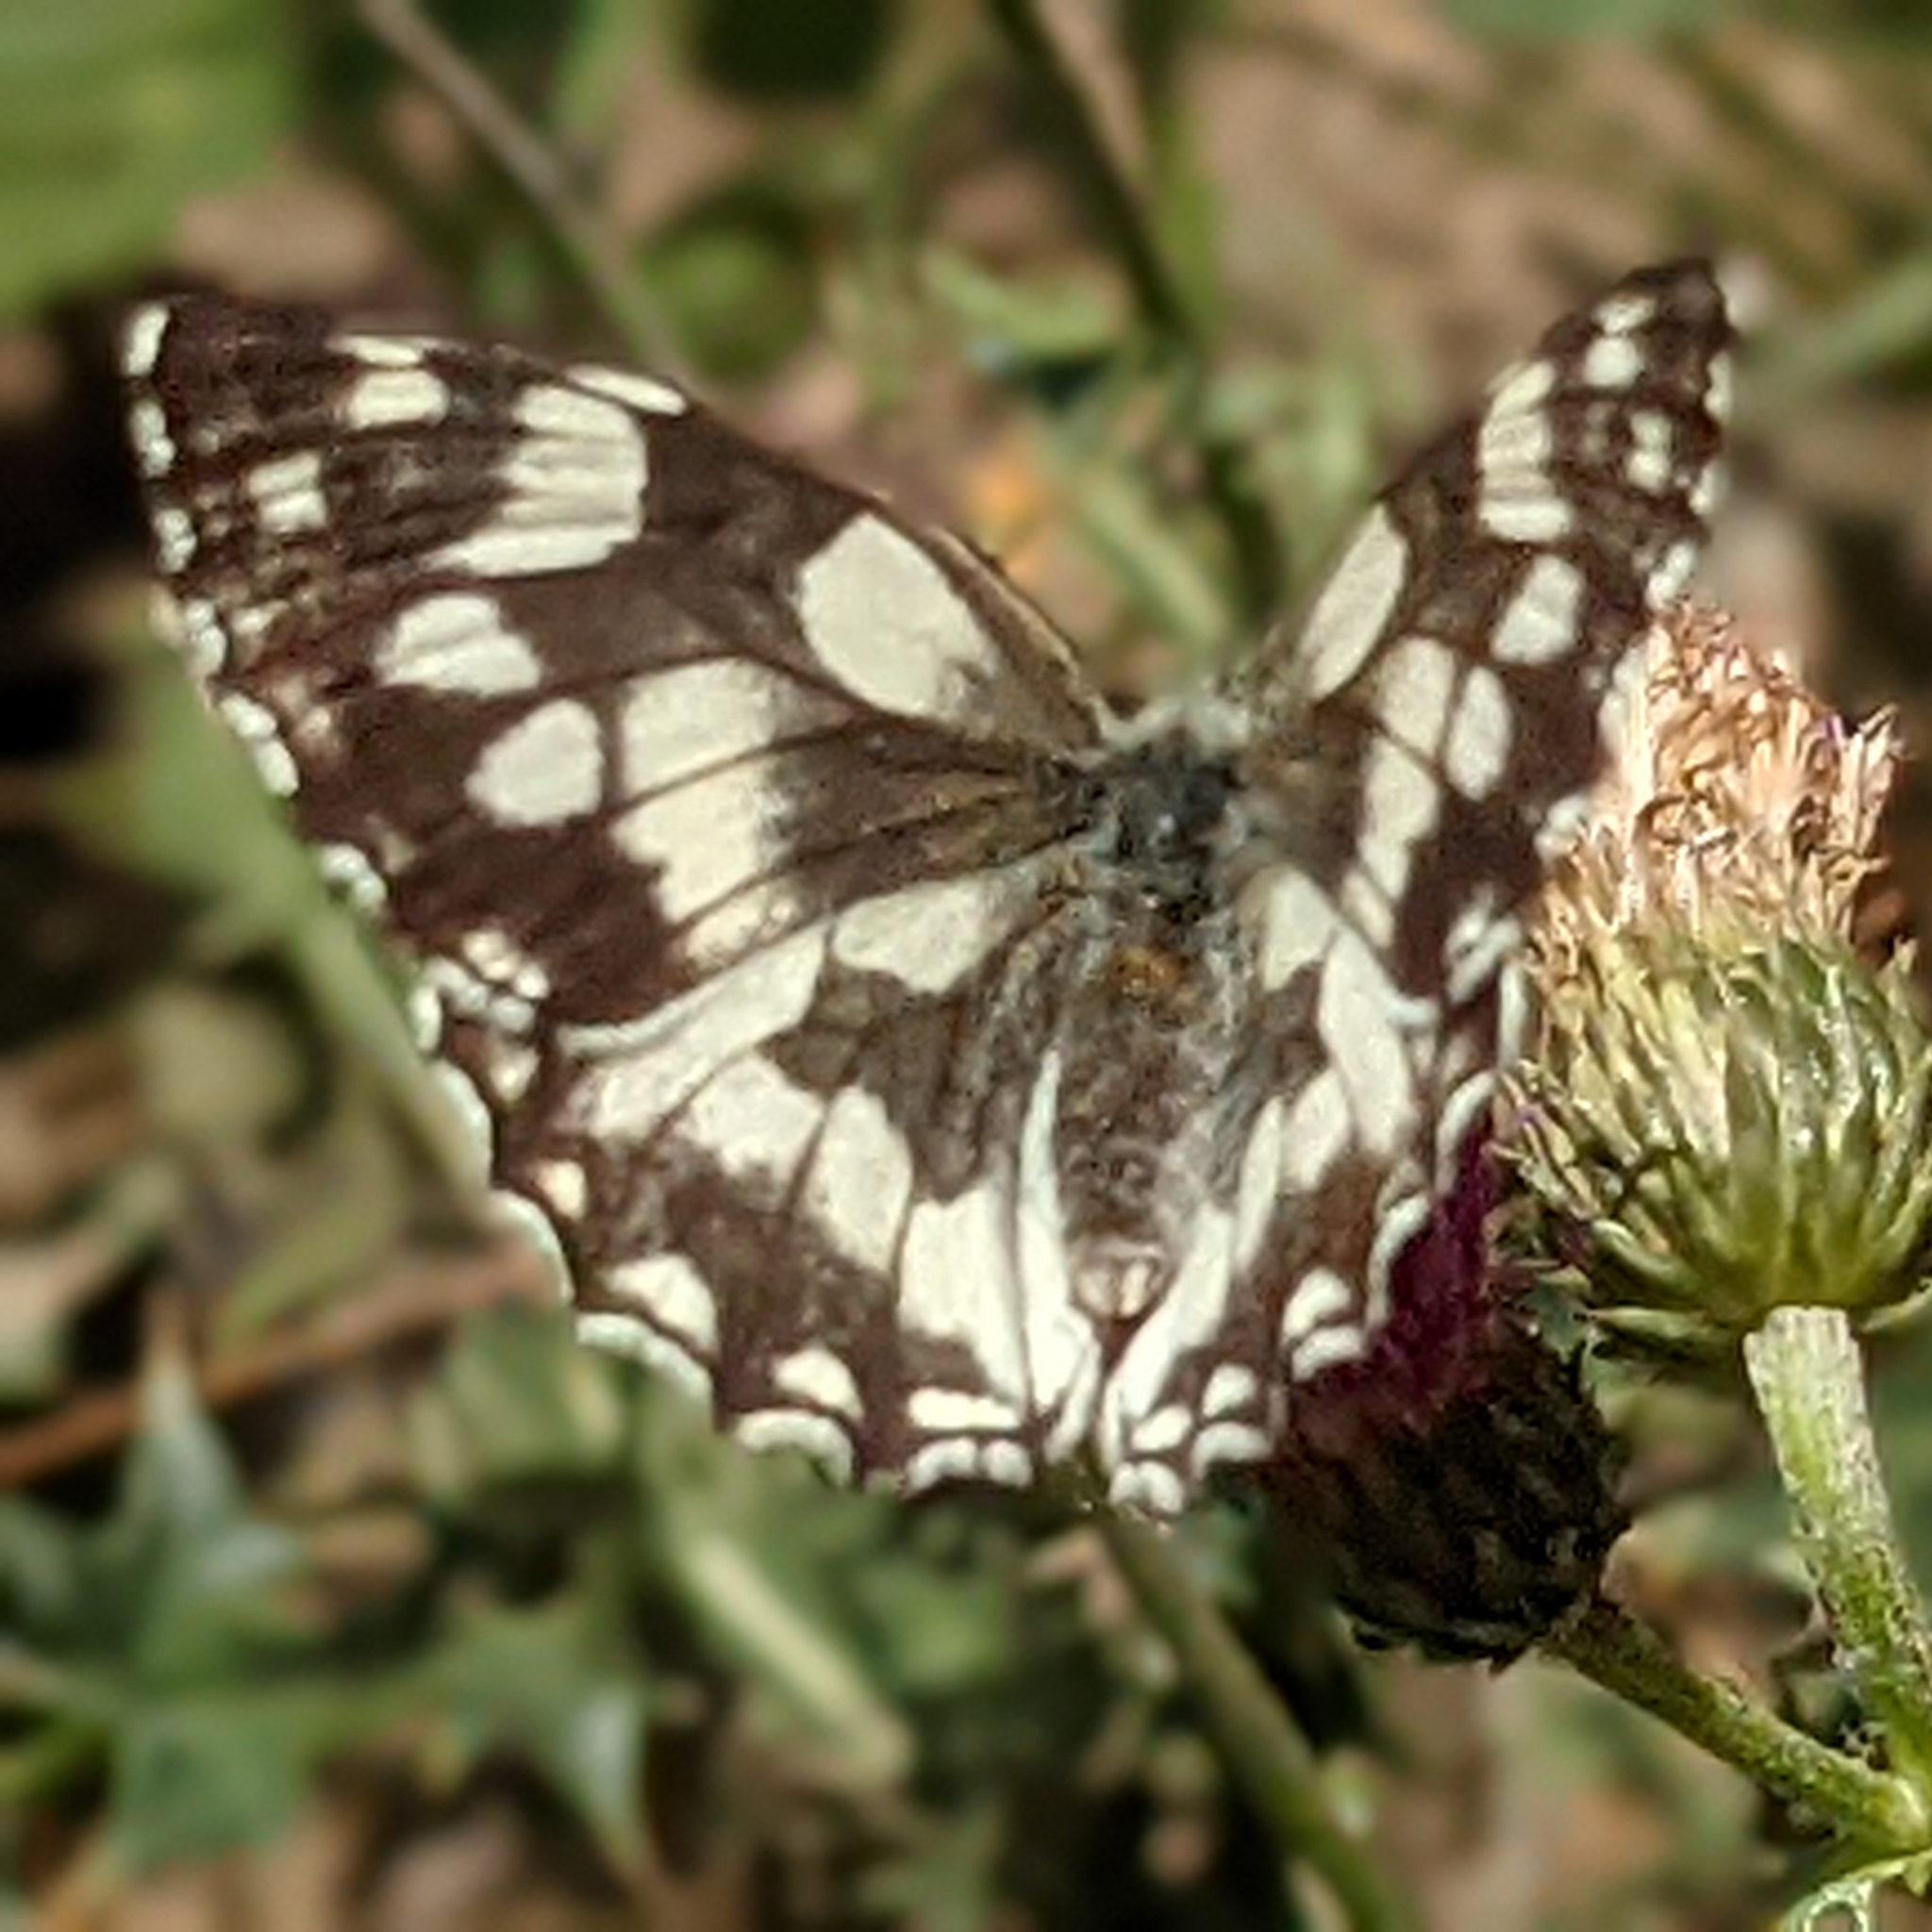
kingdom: Animalia
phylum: Arthropoda
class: Insecta
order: Lepidoptera
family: Nymphalidae
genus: Melanargia
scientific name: Melanargia galathea
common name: Marbled white
